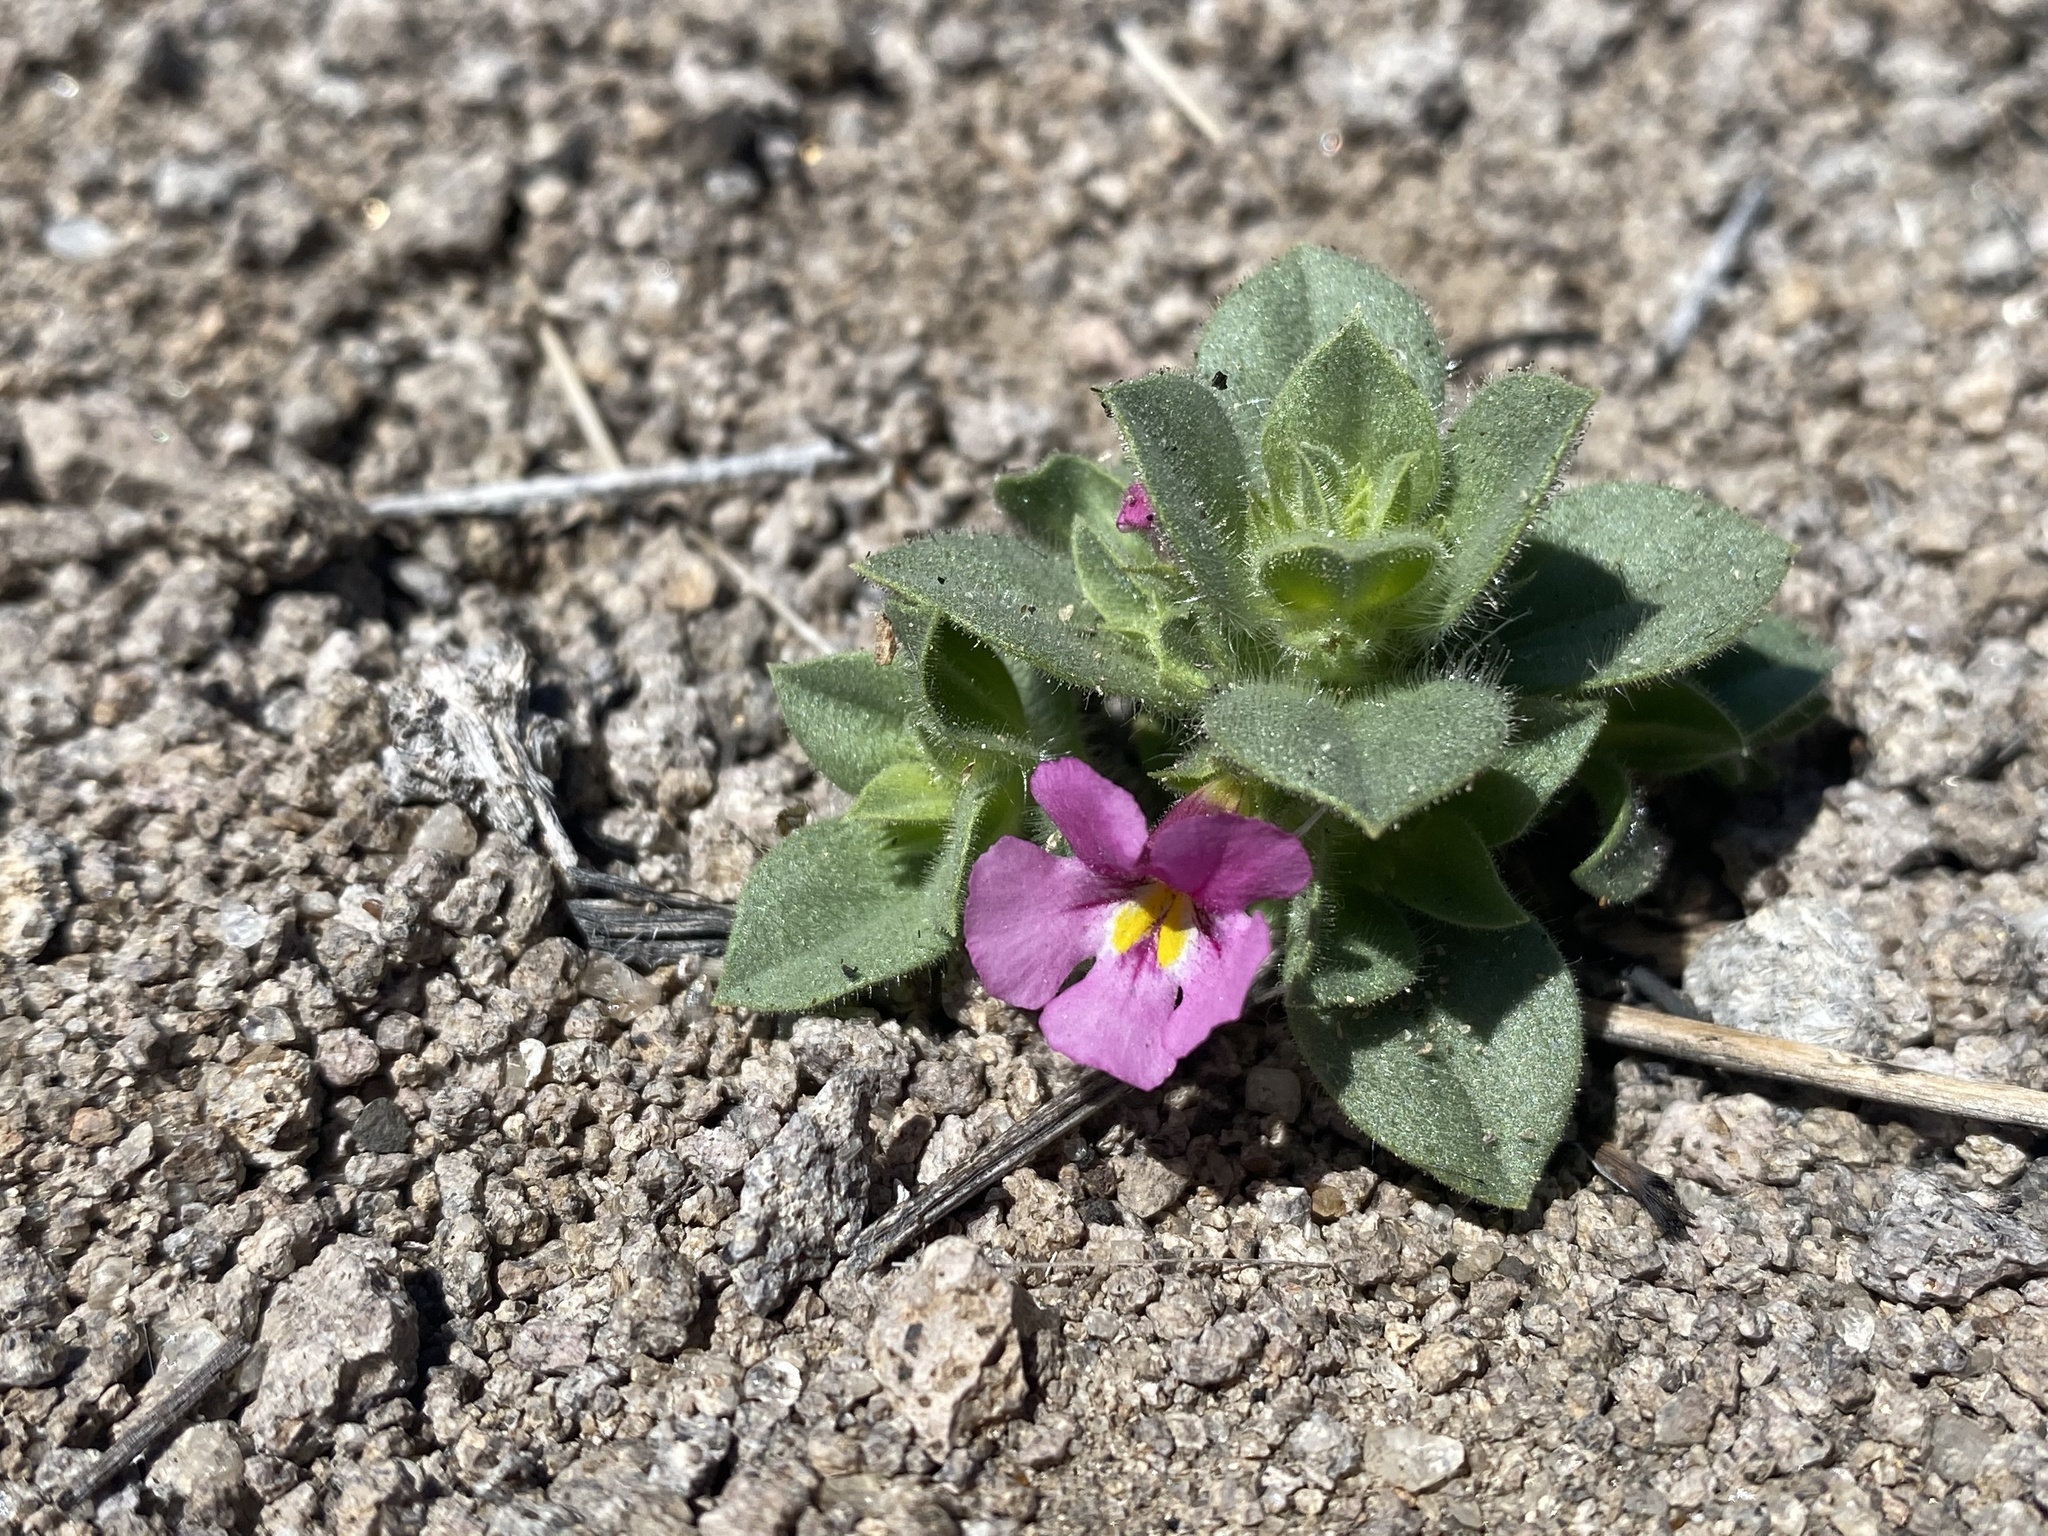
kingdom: Plantae
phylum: Tracheophyta
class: Magnoliopsida
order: Lamiales
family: Phrymaceae
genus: Diplacus
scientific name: Diplacus bigelovii
